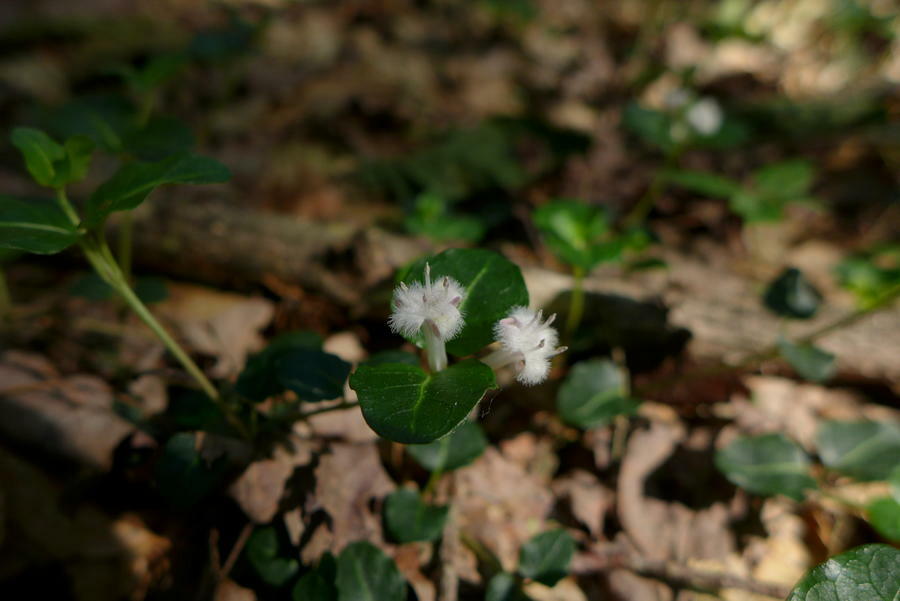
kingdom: Plantae
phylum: Tracheophyta
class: Magnoliopsida
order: Gentianales
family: Rubiaceae
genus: Mitchella
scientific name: Mitchella repens
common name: Partridge-berry
